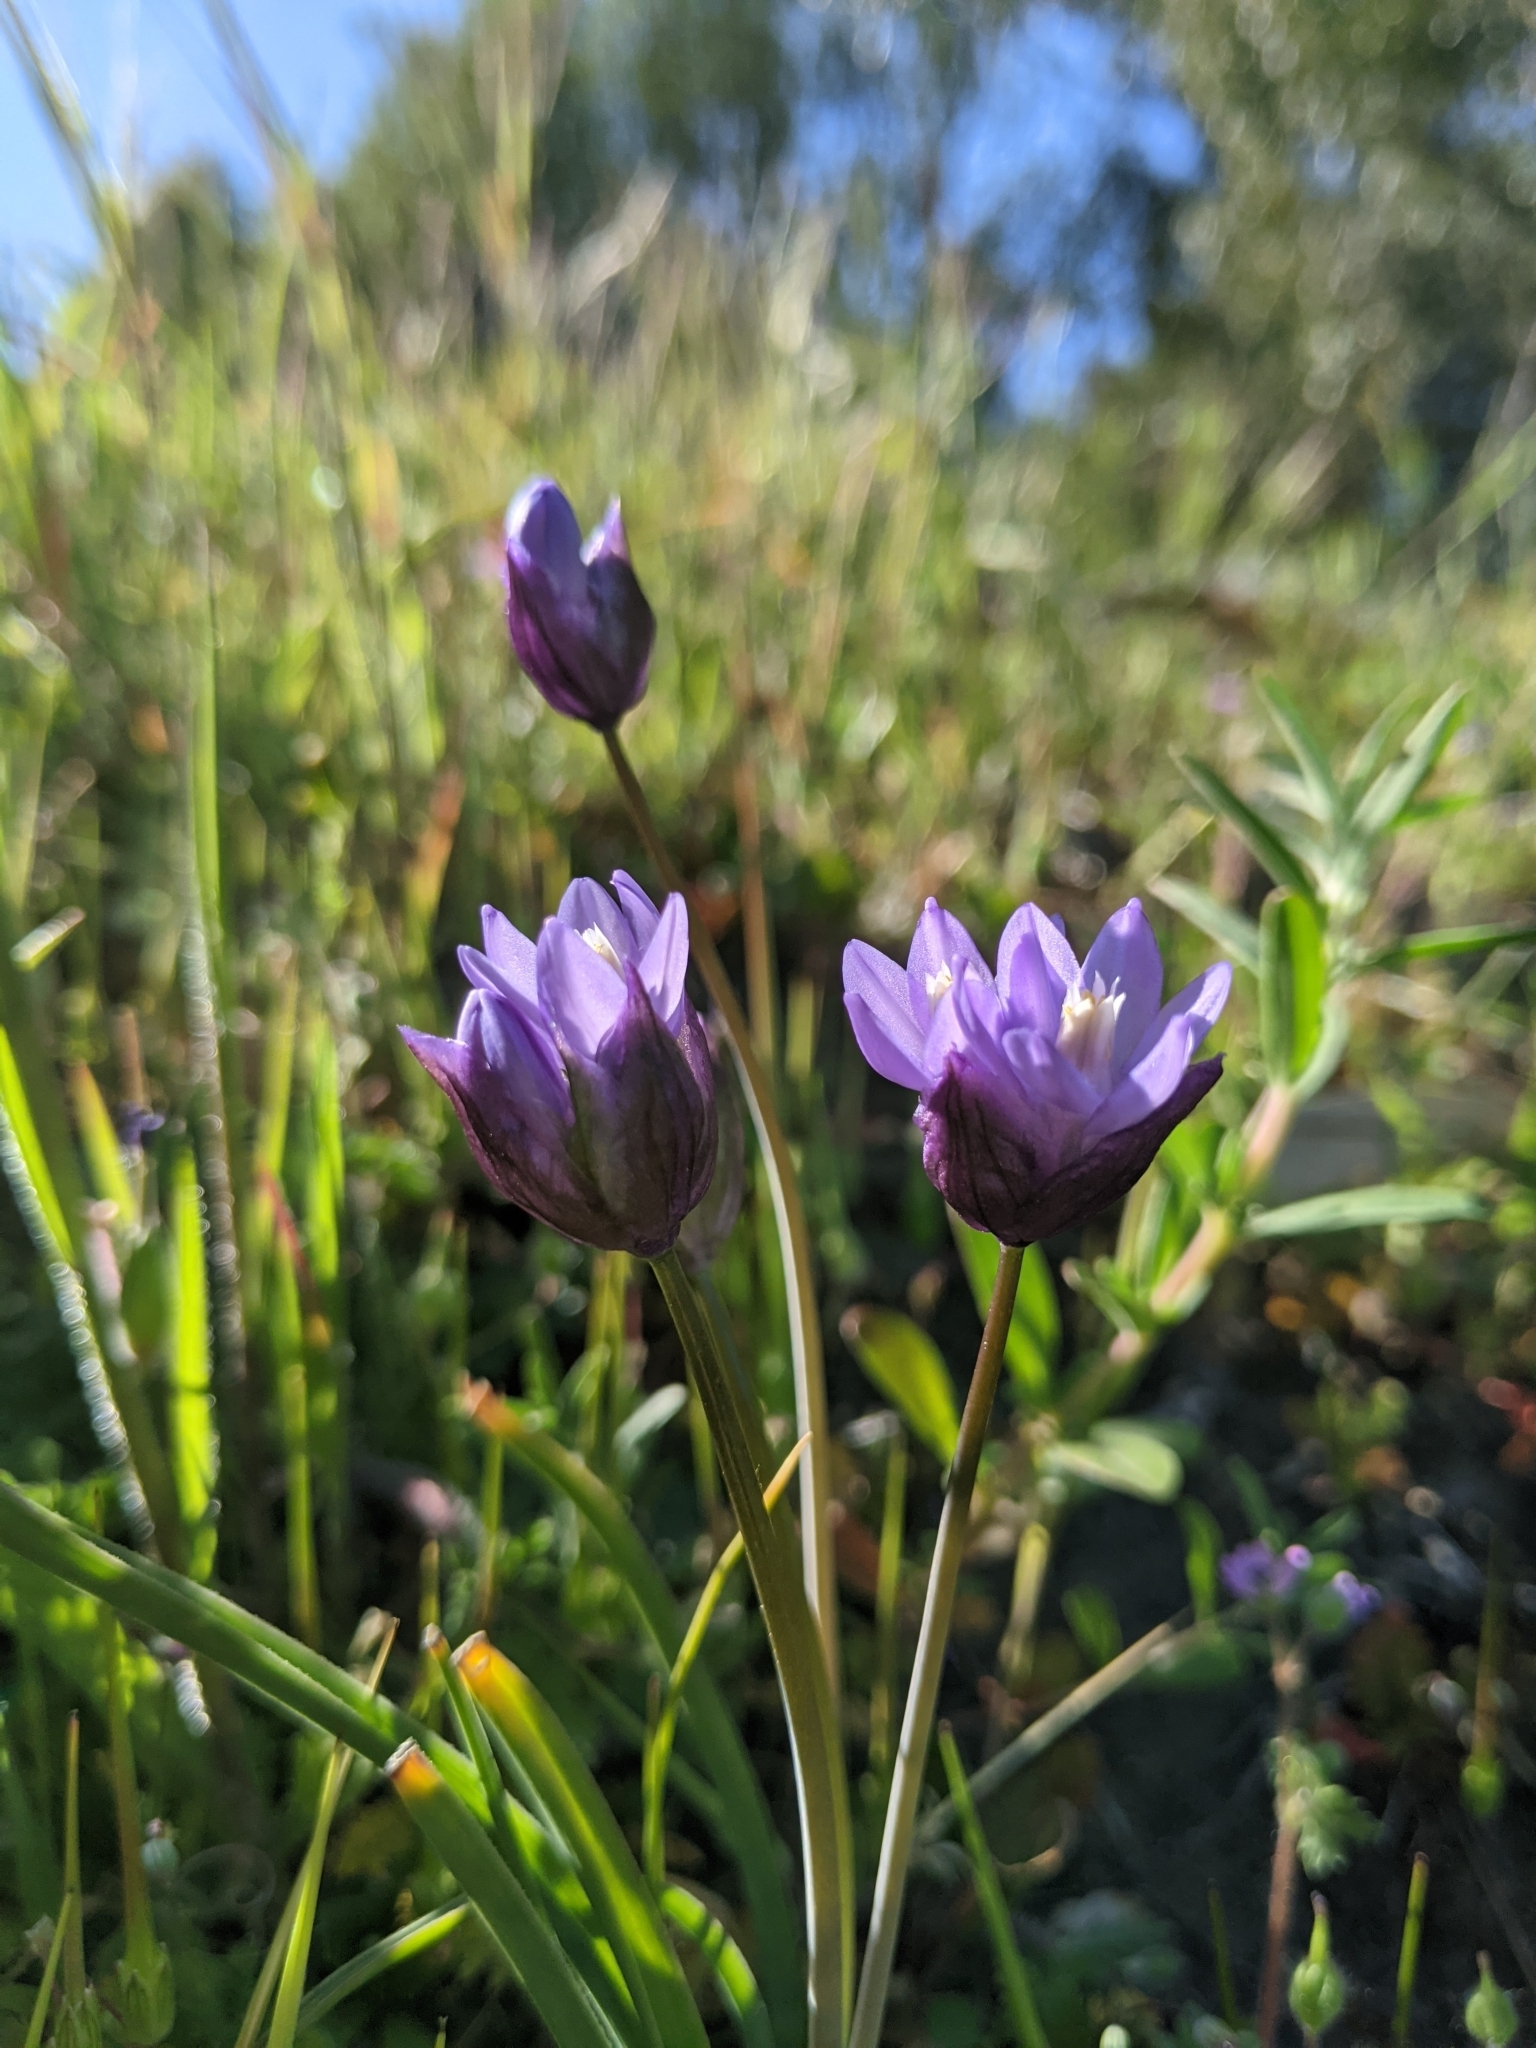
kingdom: Plantae
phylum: Tracheophyta
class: Liliopsida
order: Asparagales
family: Asparagaceae
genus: Dipterostemon
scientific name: Dipterostemon capitatus
